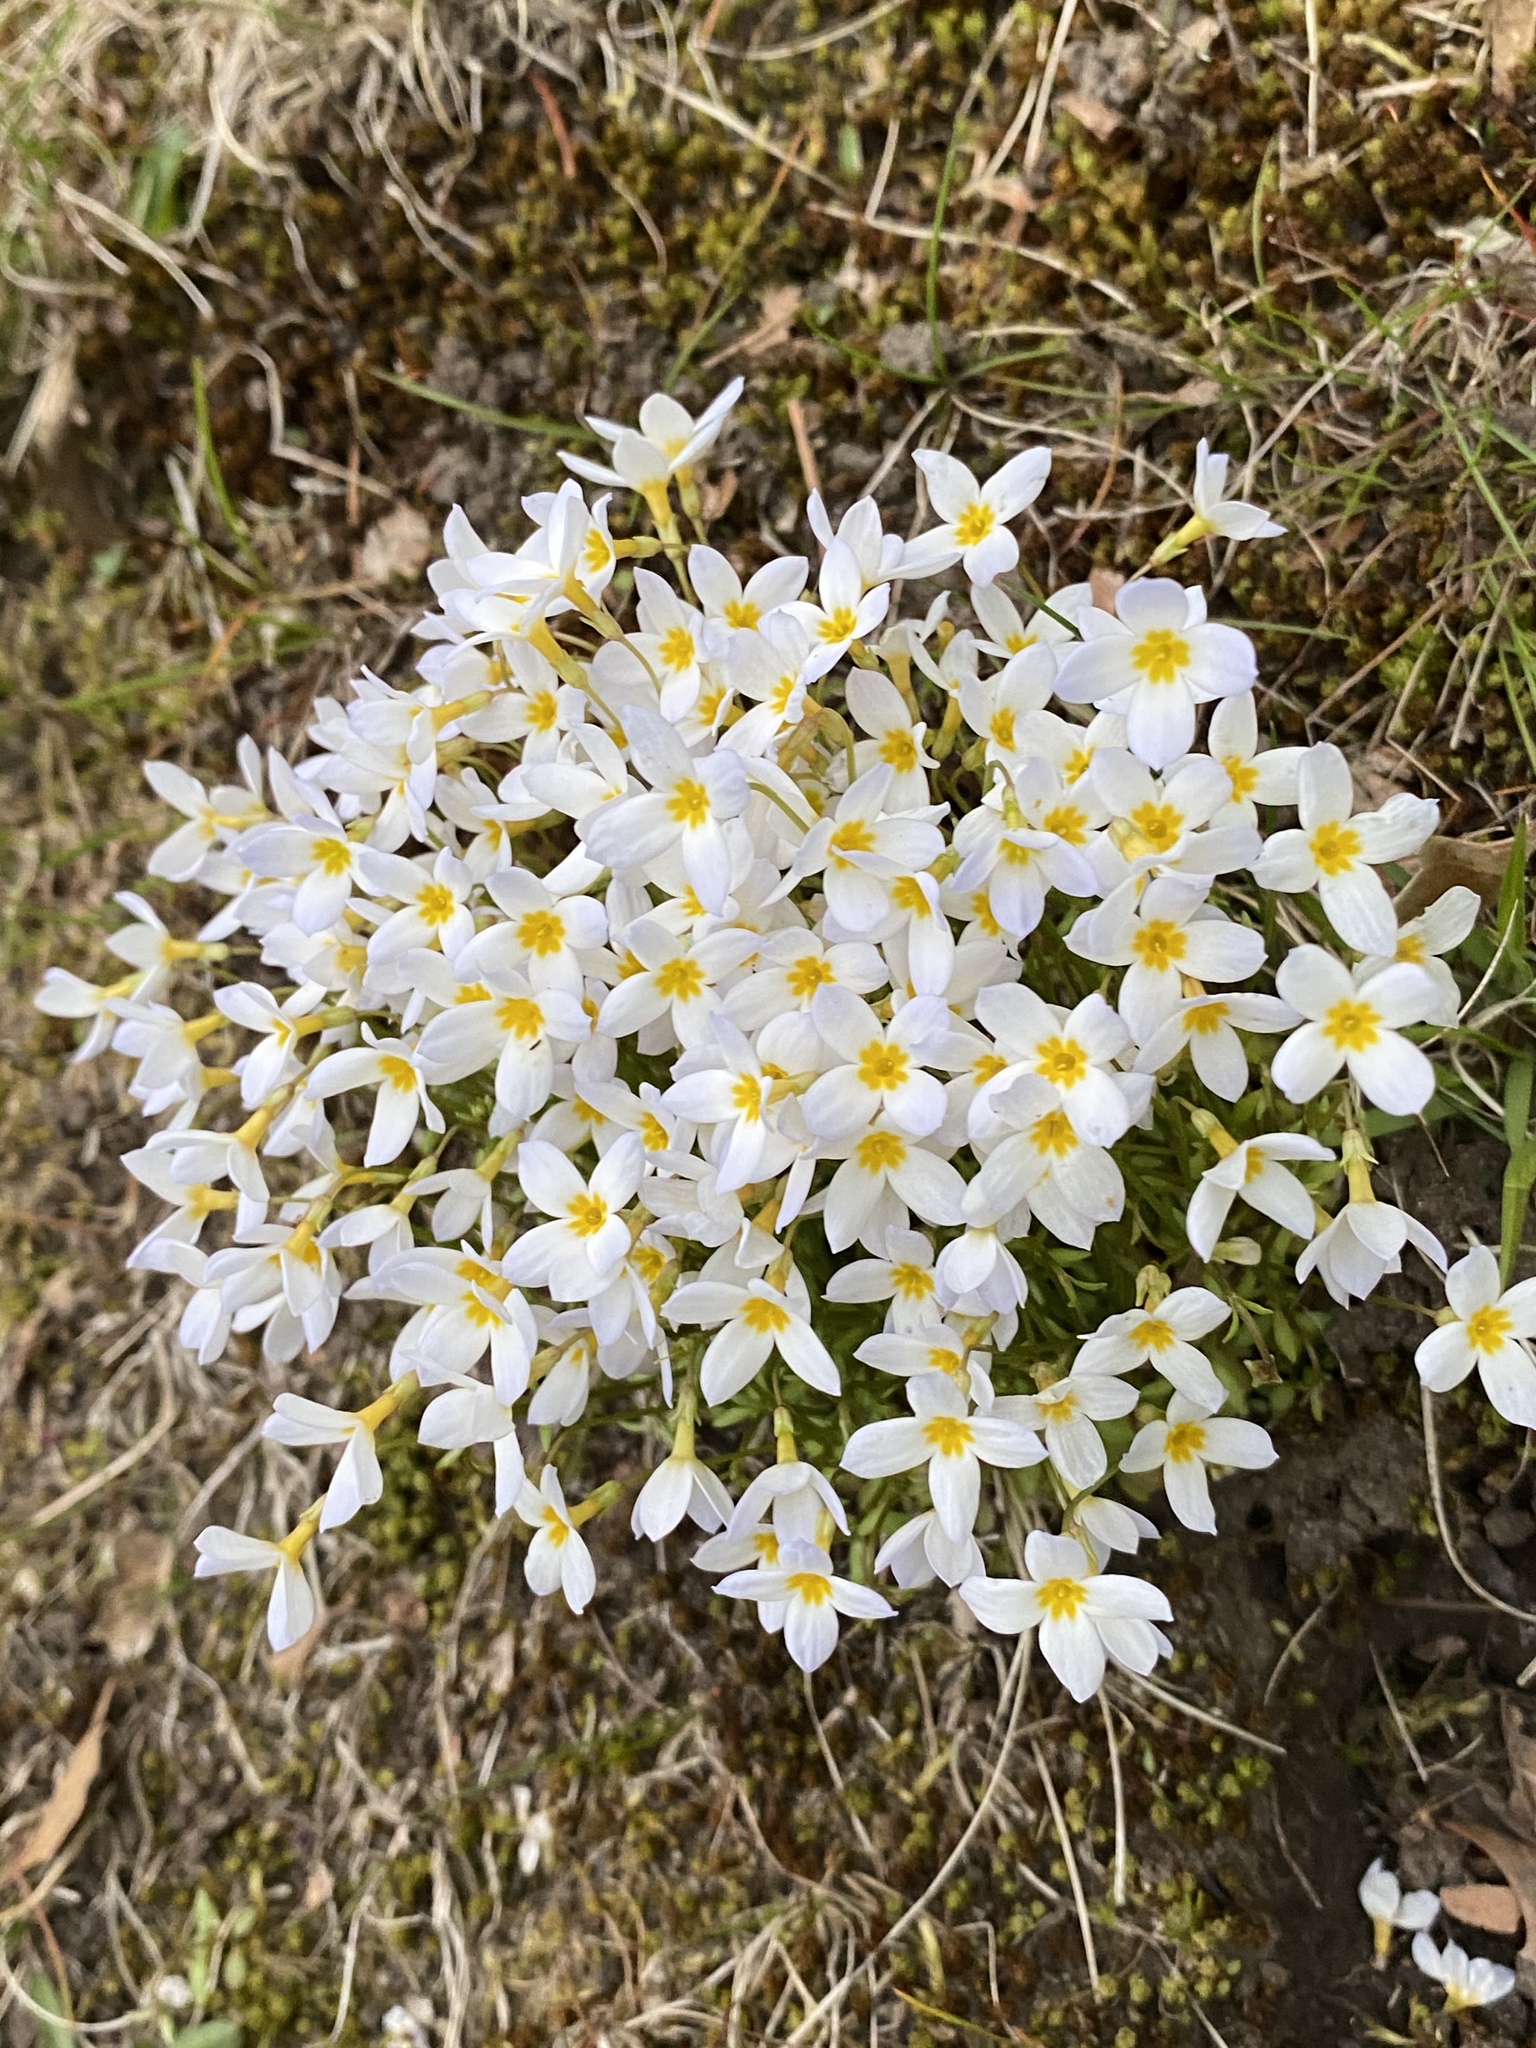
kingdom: Plantae
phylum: Tracheophyta
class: Magnoliopsida
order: Gentianales
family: Rubiaceae
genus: Houstonia
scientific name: Houstonia caerulea
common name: Bluets
